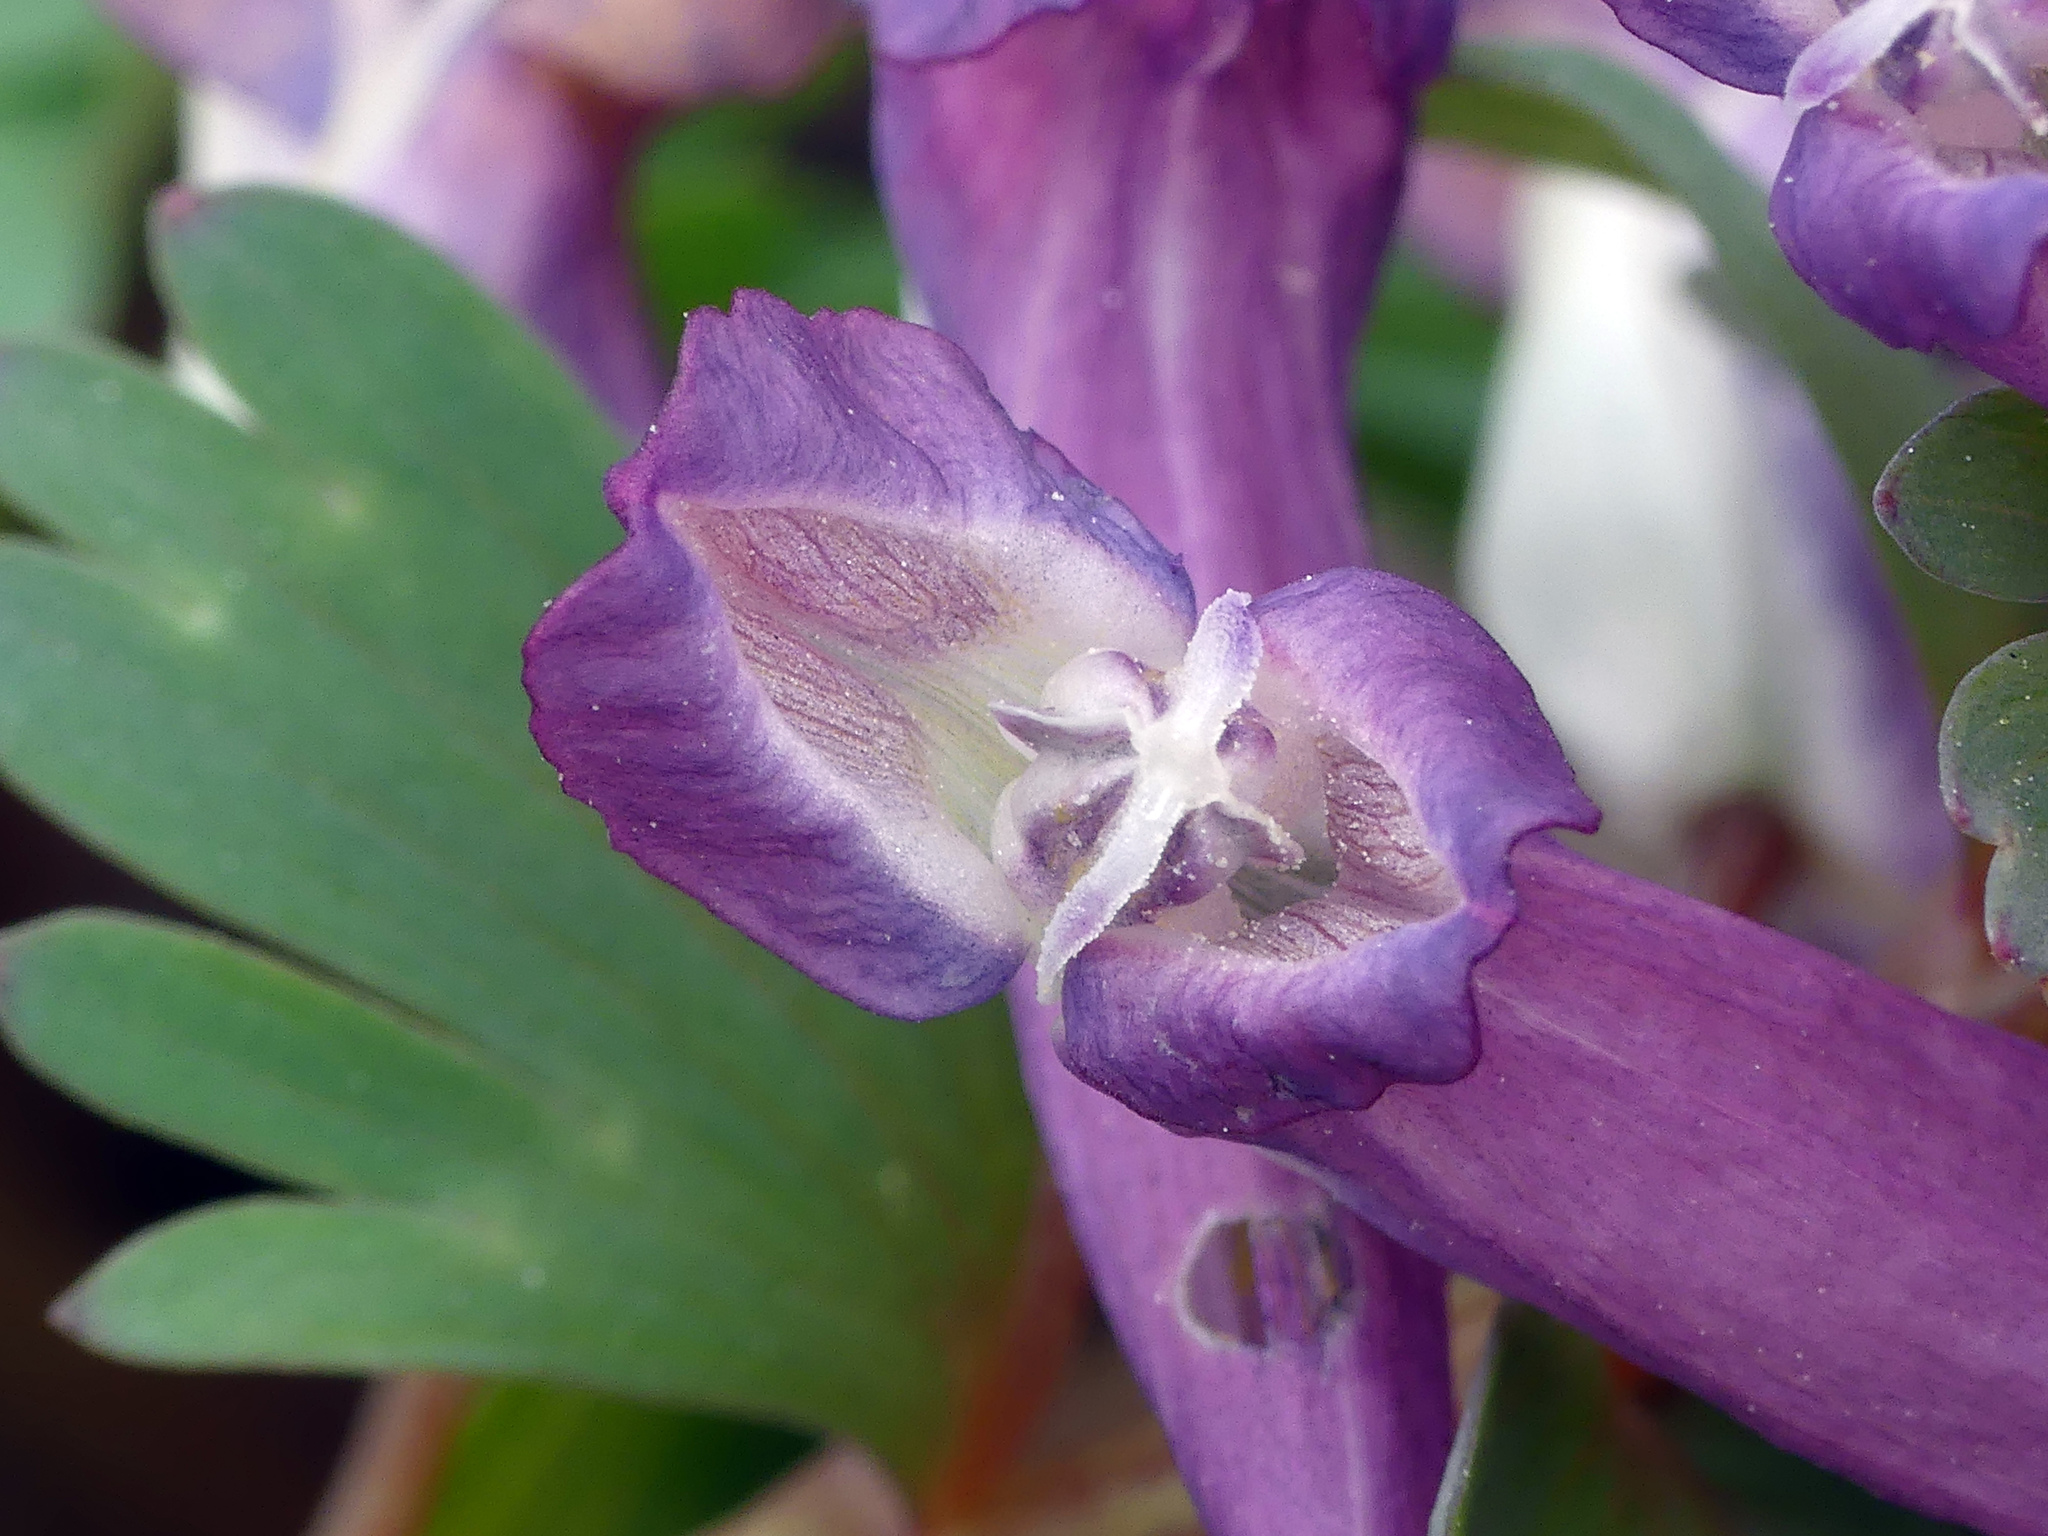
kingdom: Plantae
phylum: Tracheophyta
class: Magnoliopsida
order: Ranunculales
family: Papaveraceae
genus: Corydalis
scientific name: Corydalis solida
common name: Bird-in-a-bush
